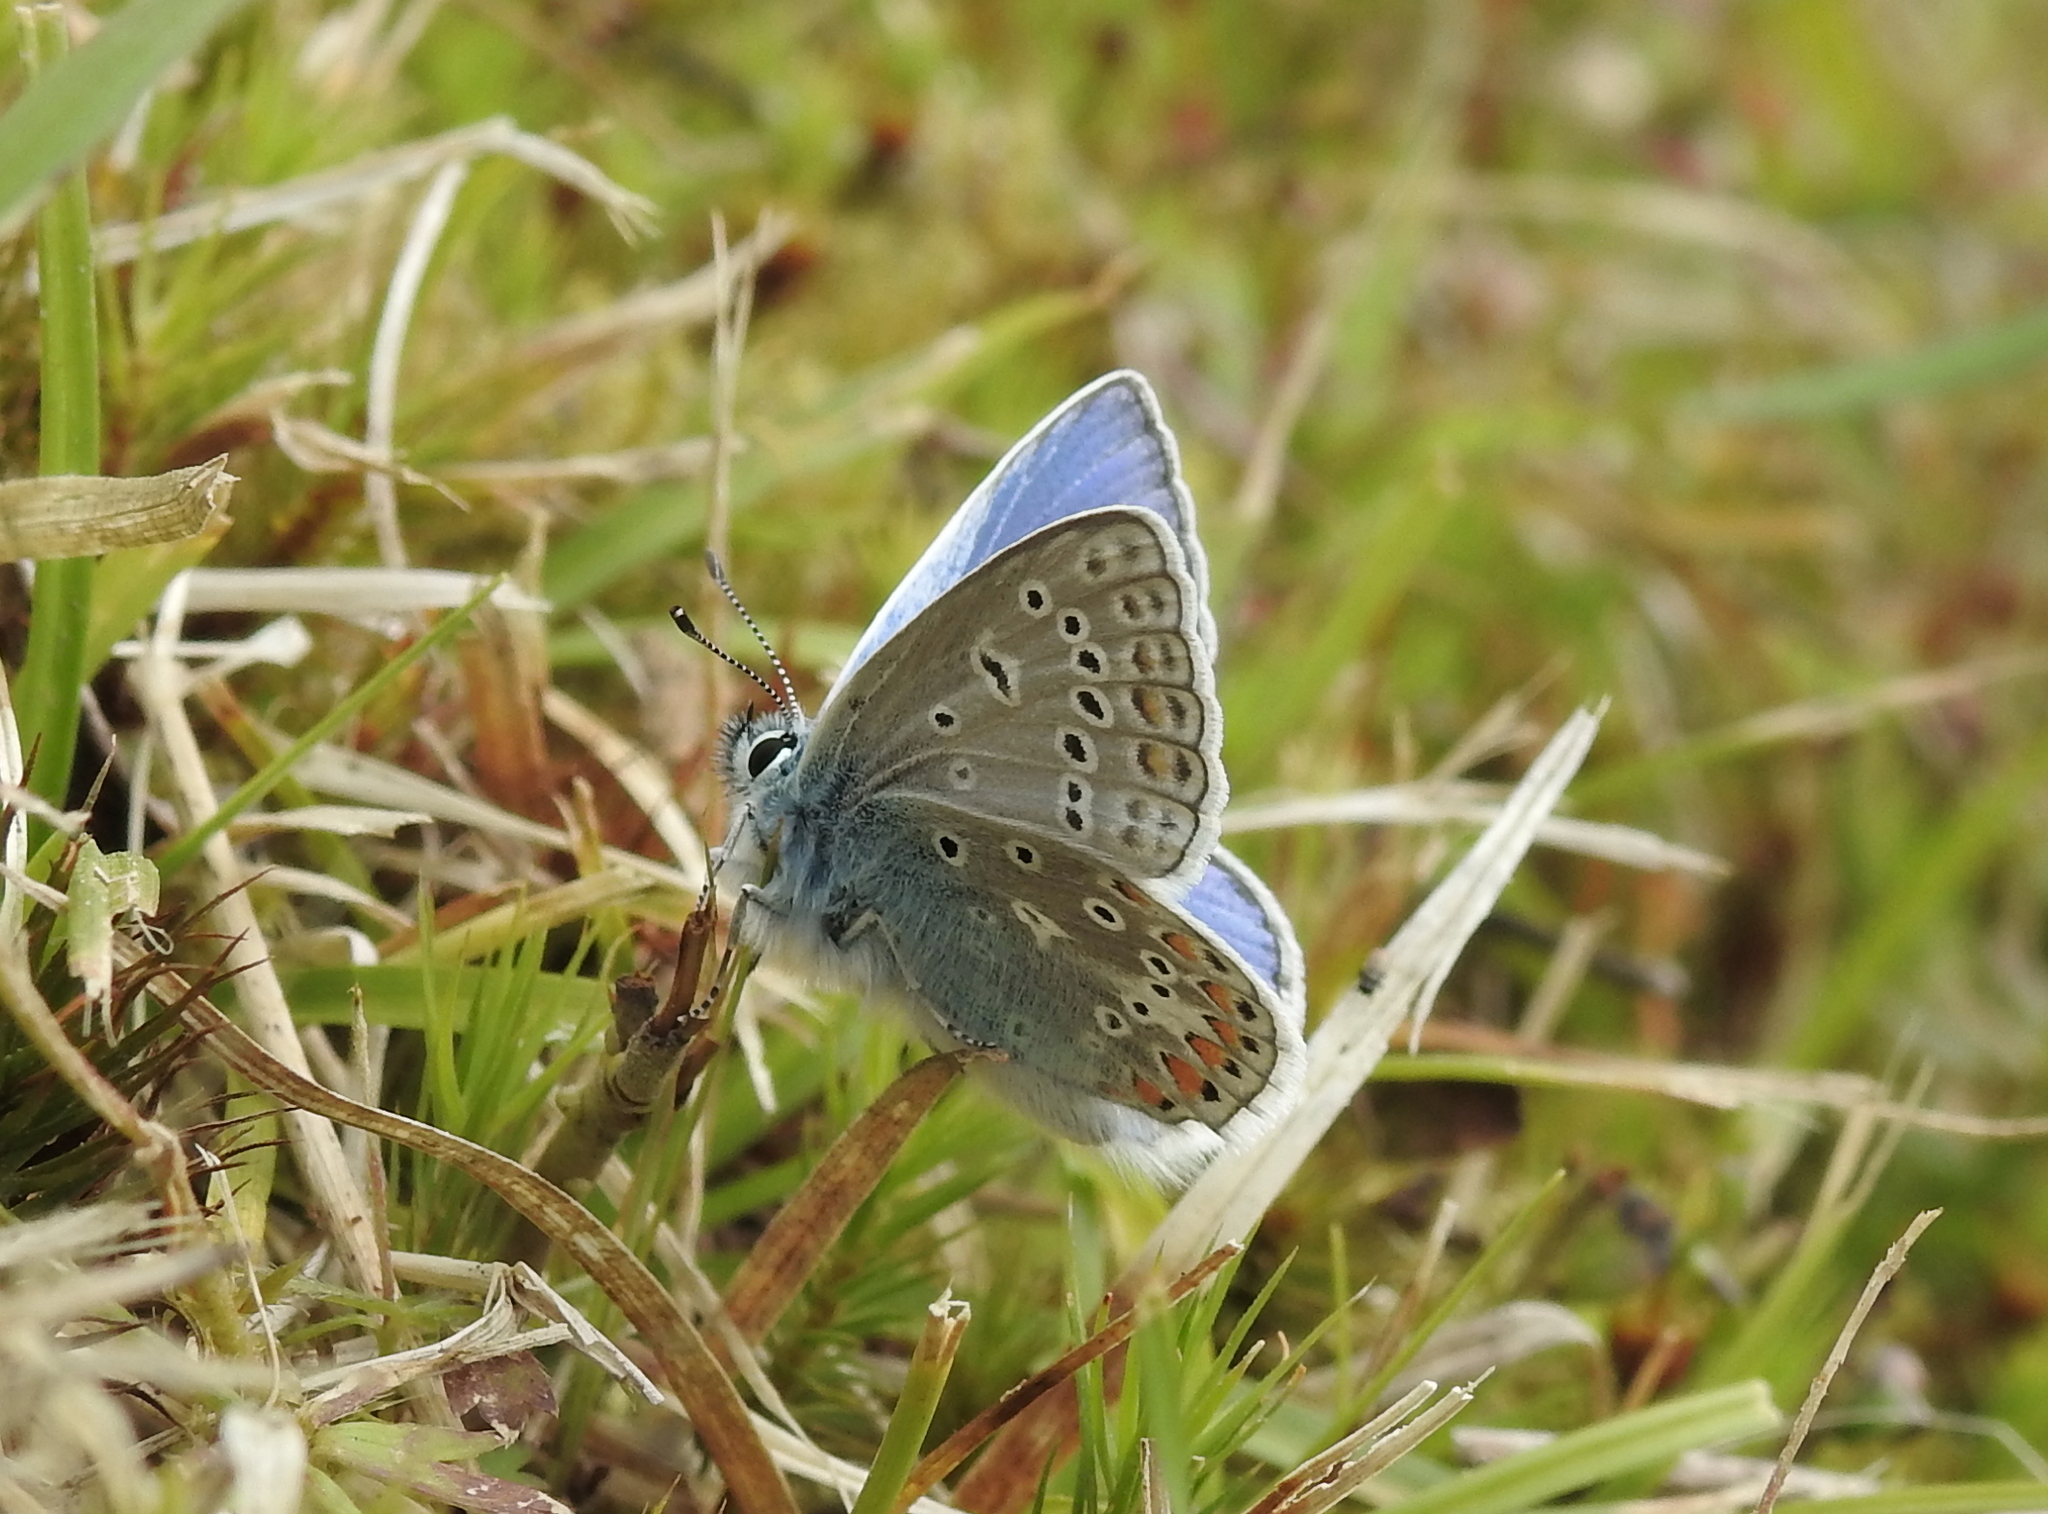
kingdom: Animalia
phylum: Arthropoda
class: Insecta
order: Lepidoptera
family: Lycaenidae
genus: Polyommatus
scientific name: Polyommatus icarus
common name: Common blue
